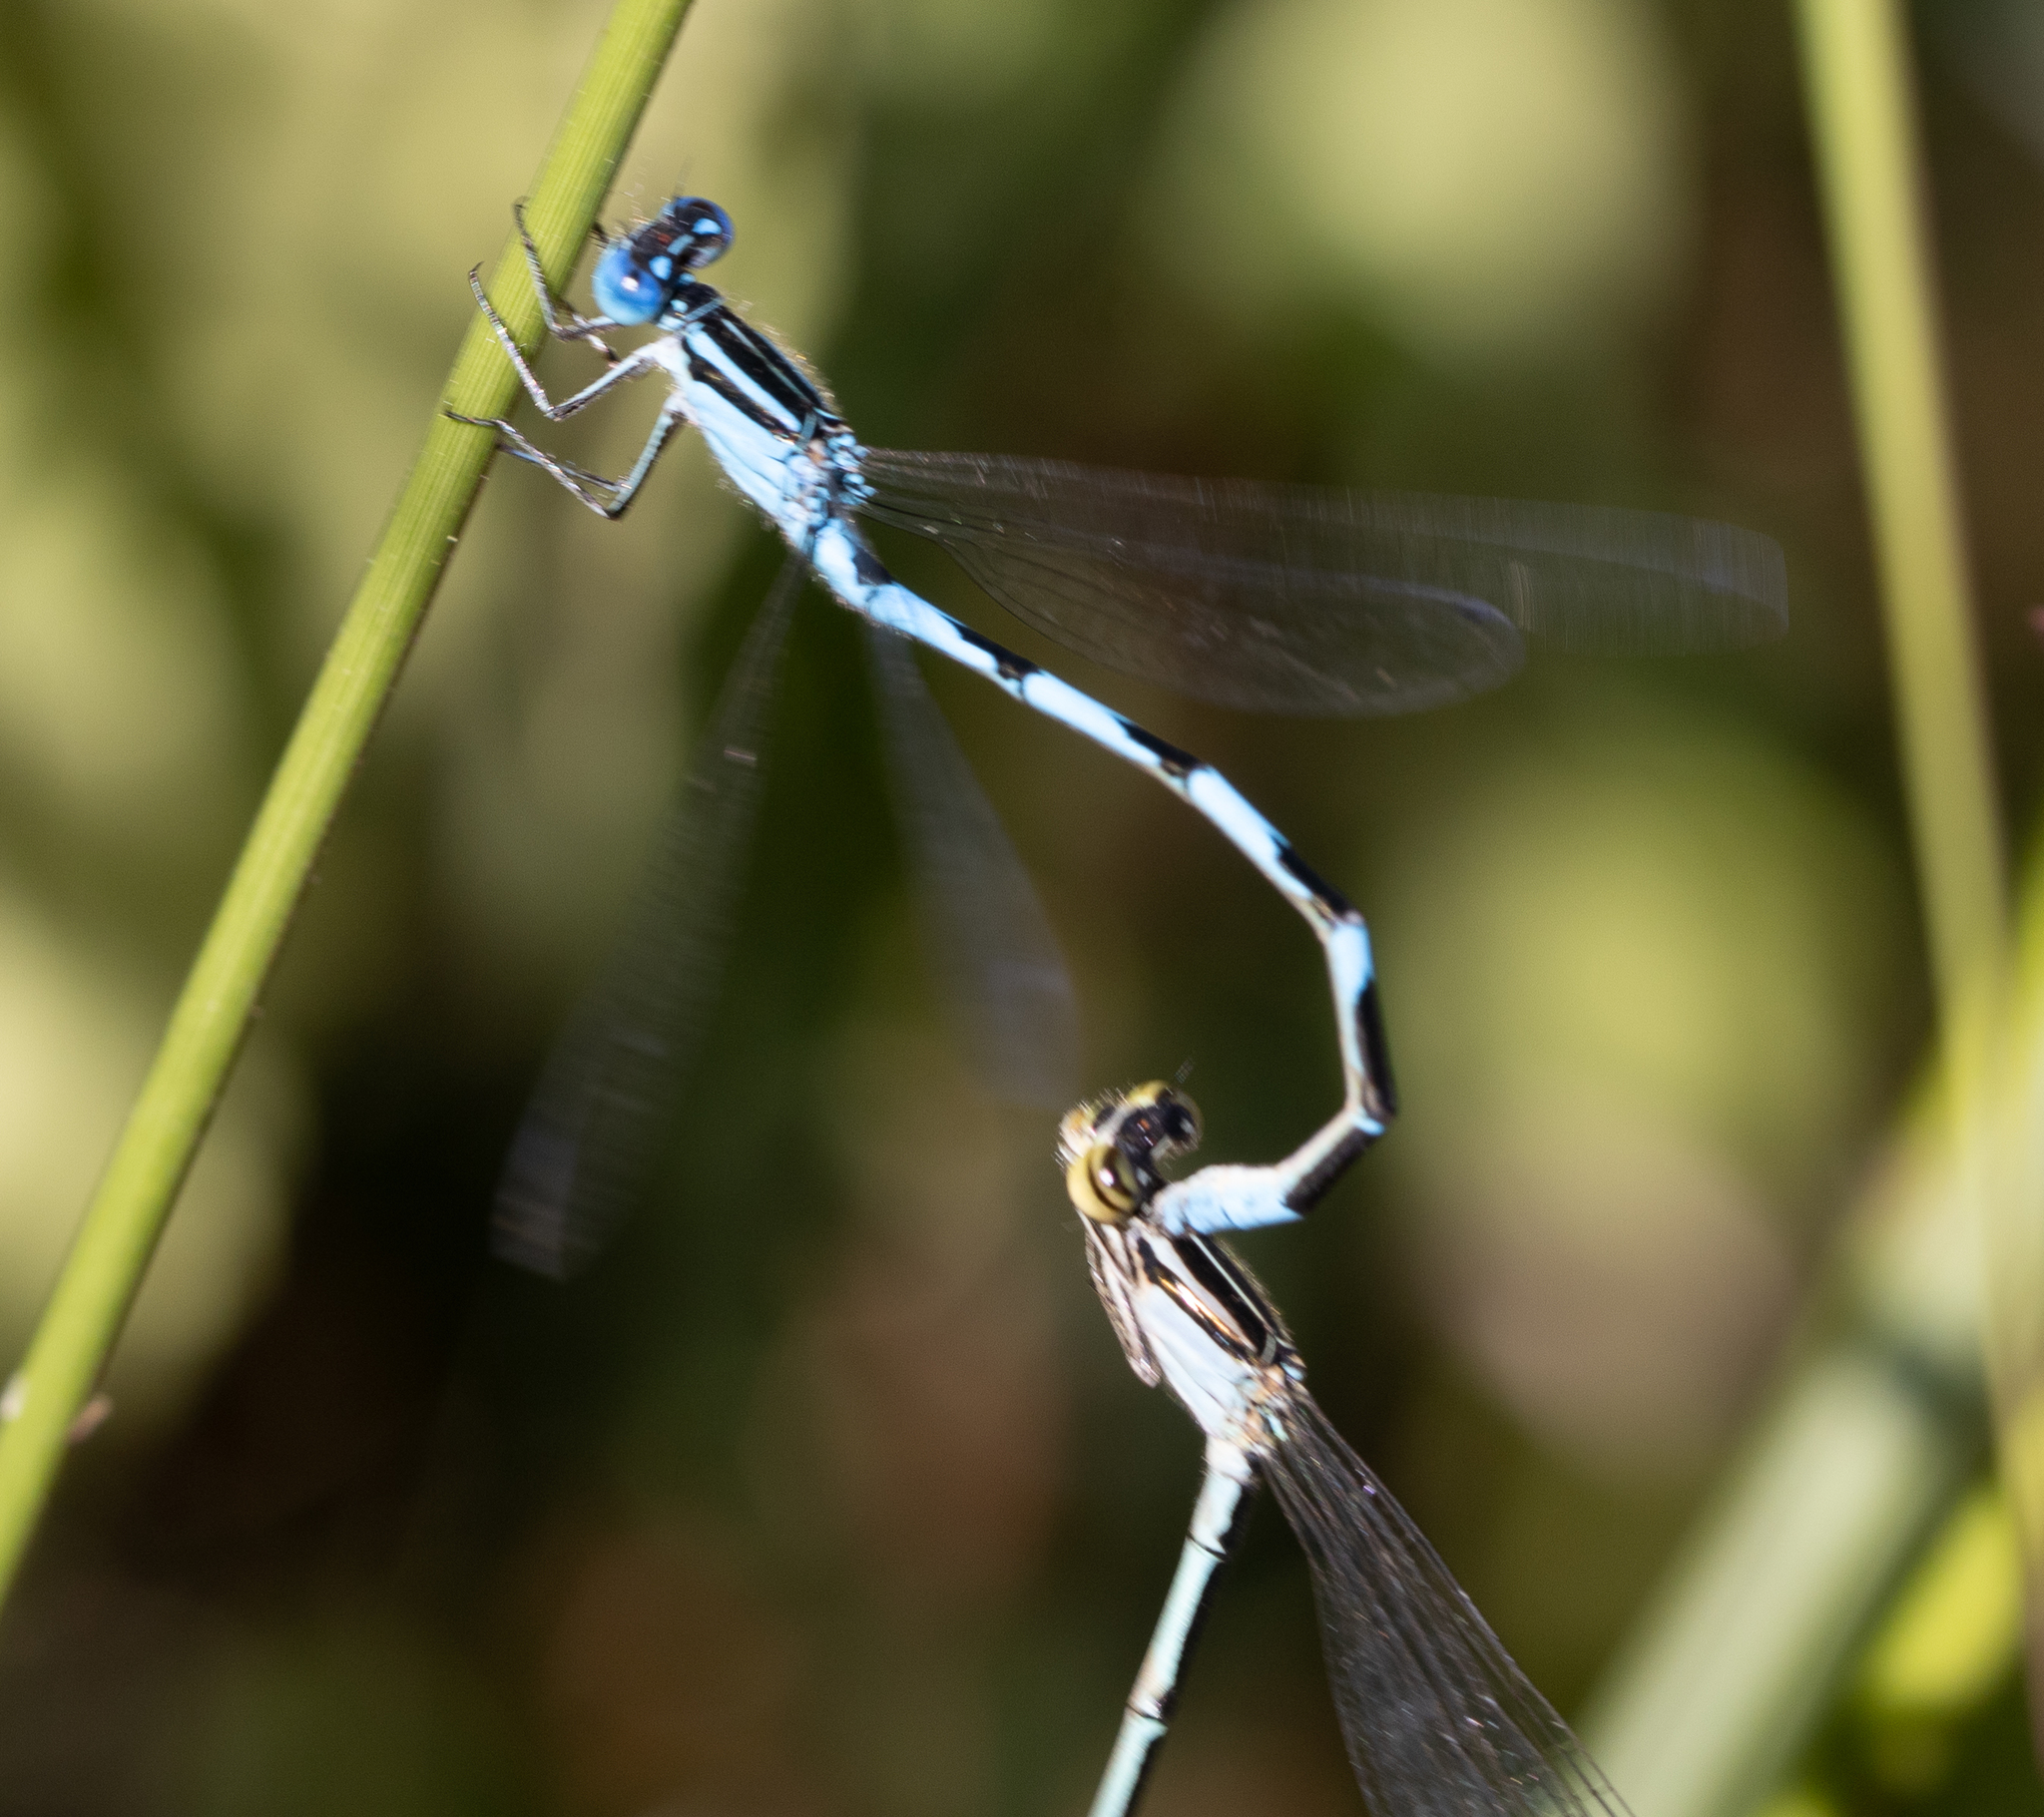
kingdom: Animalia
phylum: Arthropoda
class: Insecta
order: Odonata
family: Coenagrionidae
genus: Enallagma
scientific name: Enallagma durum
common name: Big bluet
